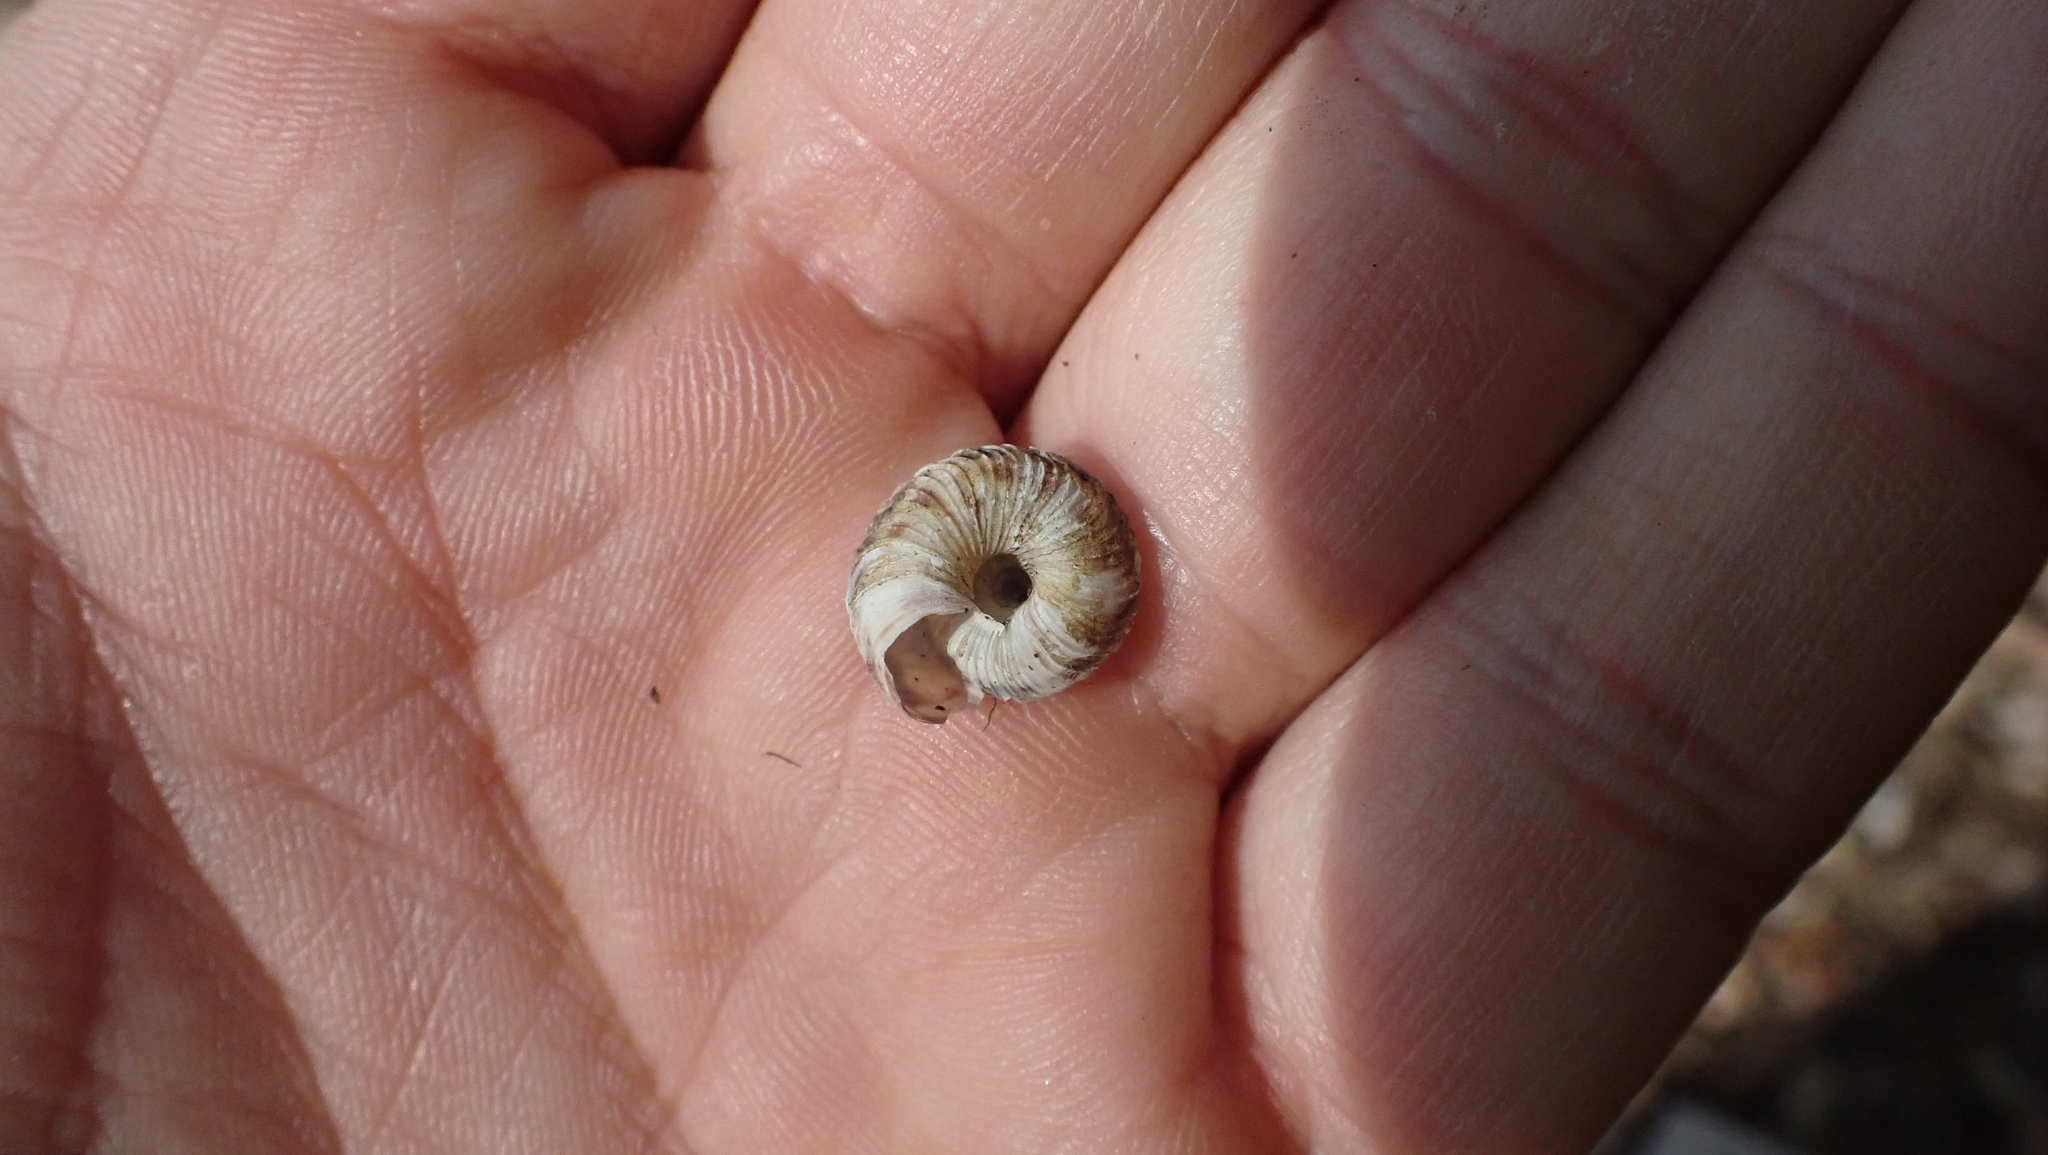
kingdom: Animalia
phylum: Mollusca
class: Gastropoda
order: Stylommatophora
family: Discidae
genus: Anguispira
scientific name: Anguispira mordax
